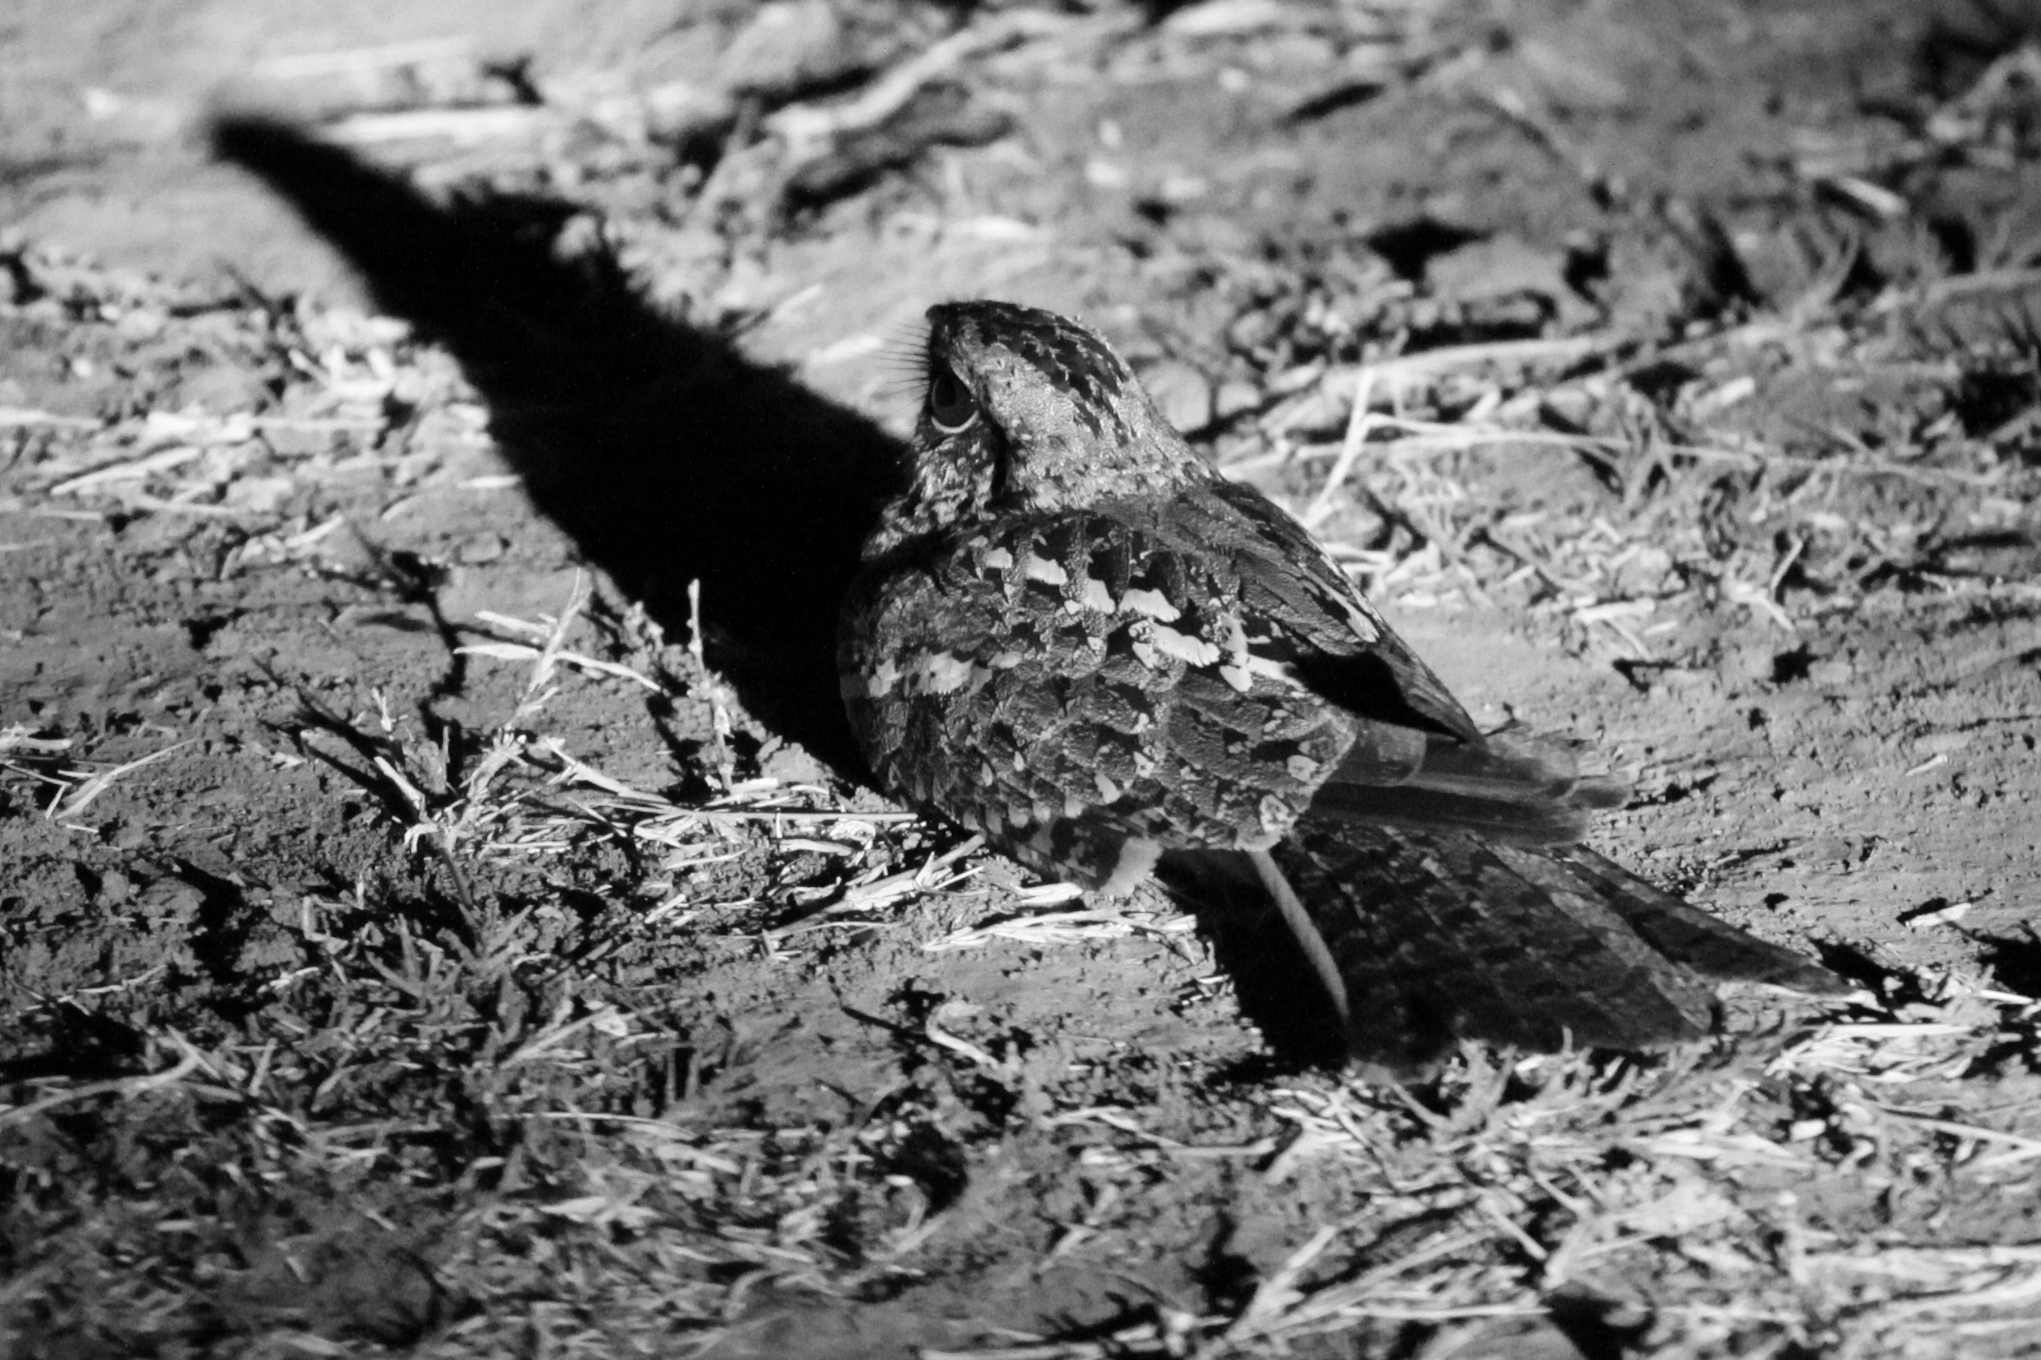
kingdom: Animalia
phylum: Chordata
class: Aves
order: Caprimulgiformes
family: Caprimulgidae
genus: Caprimulgus
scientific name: Caprimulgus fossii
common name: Square-tailed nightjar
